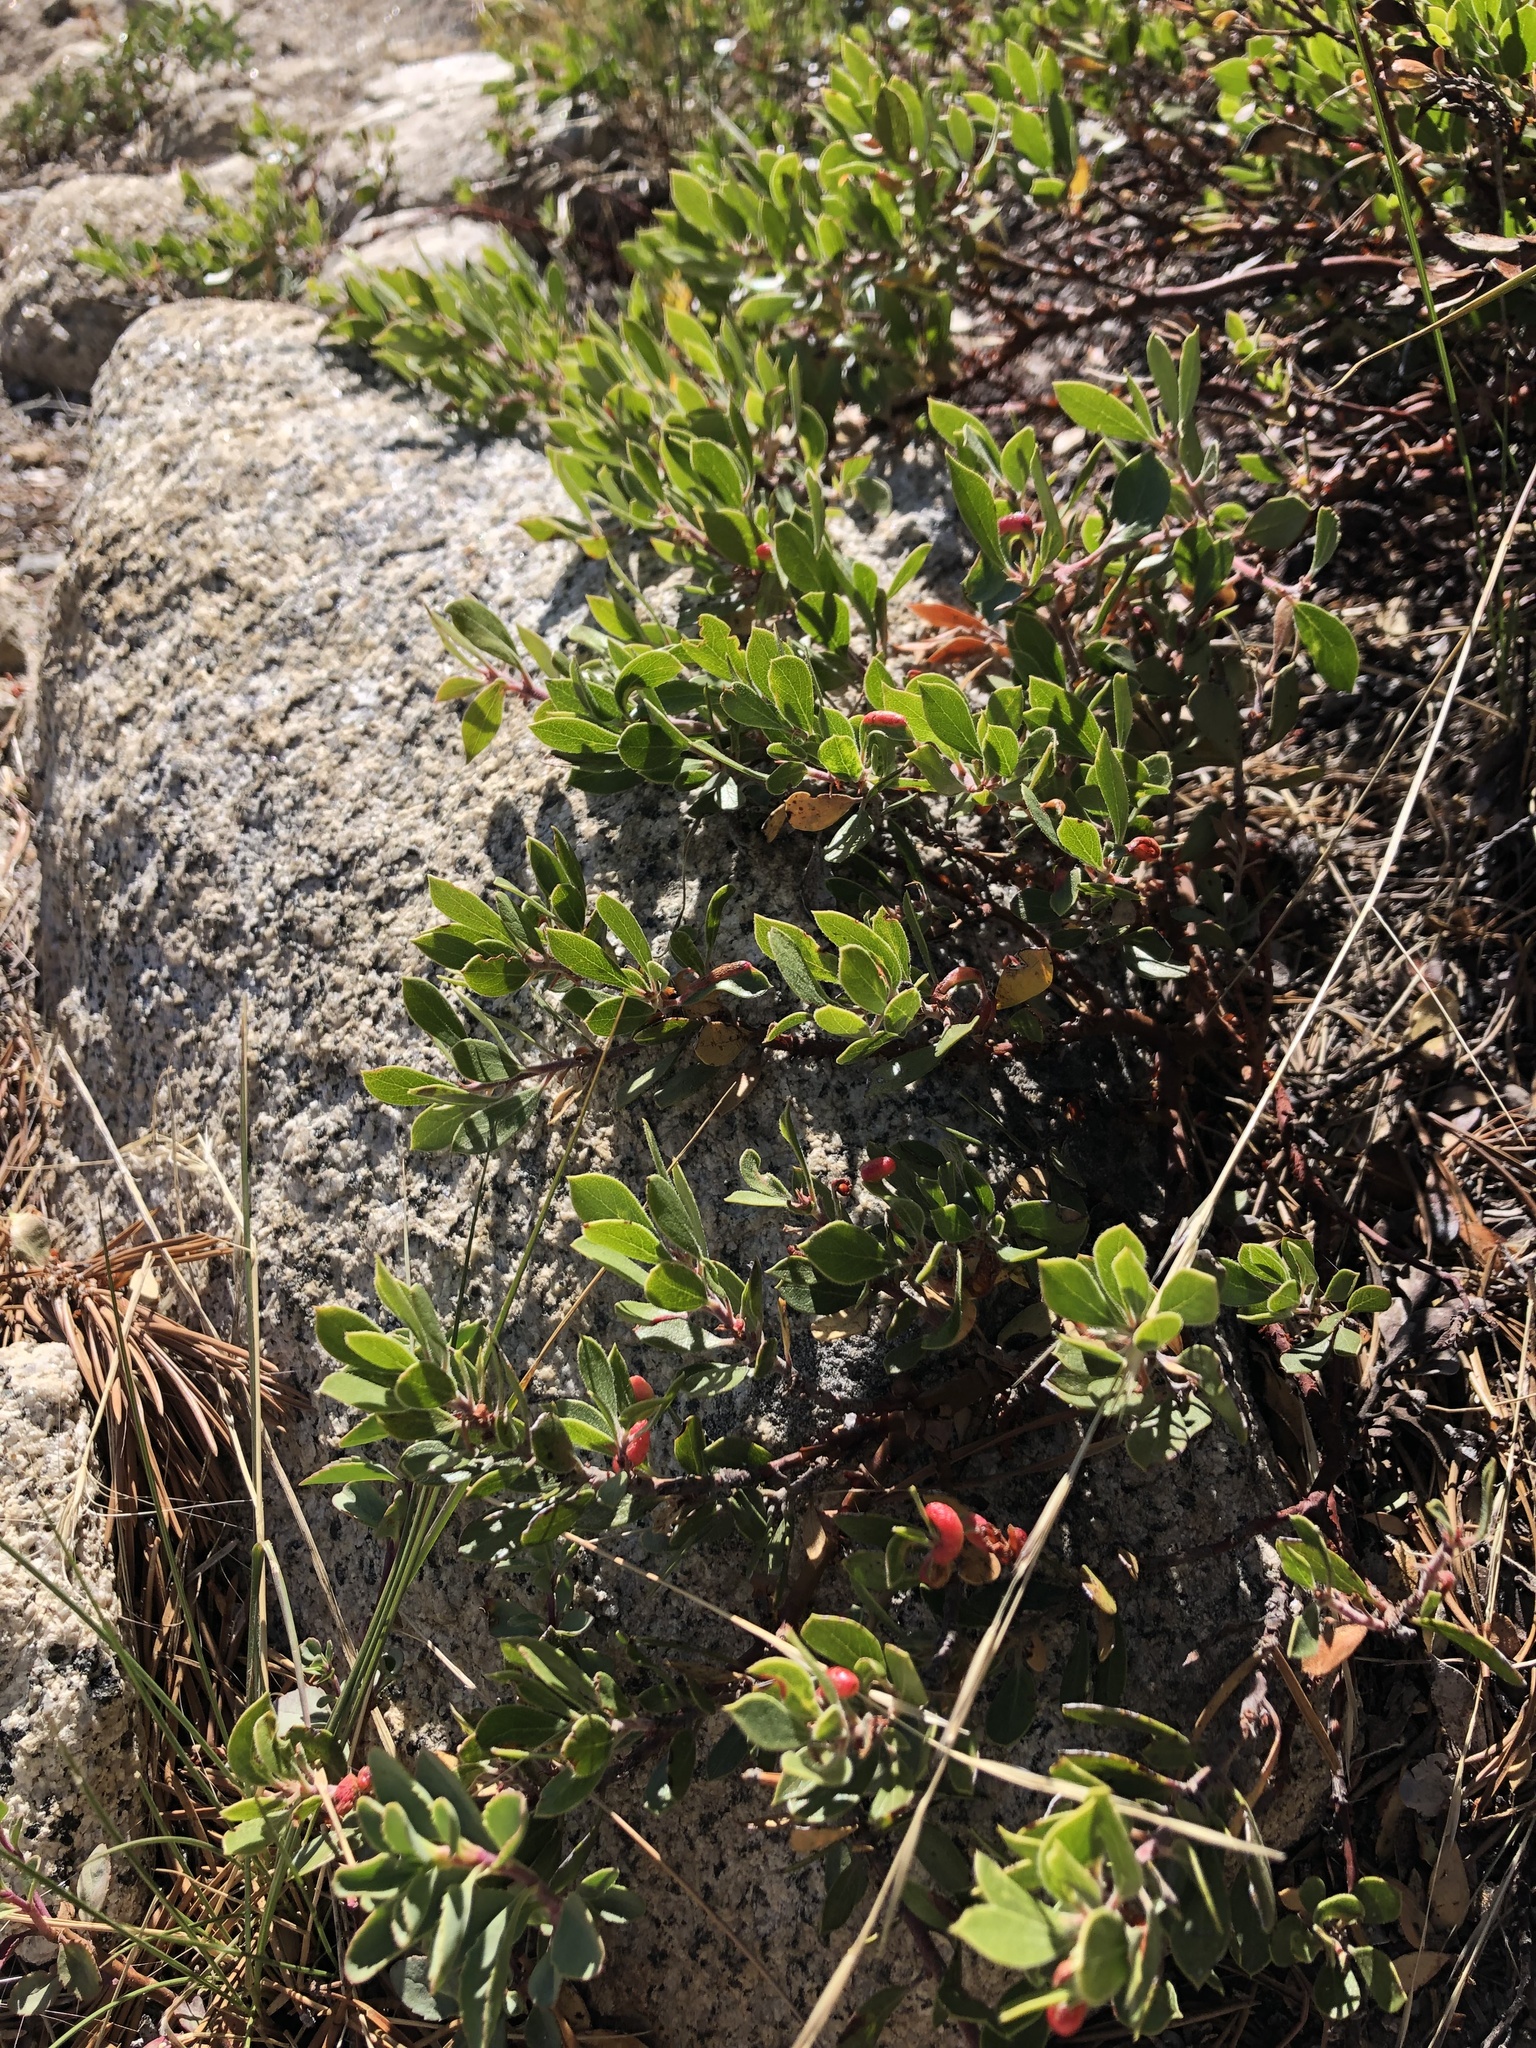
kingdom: Plantae
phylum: Tracheophyta
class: Magnoliopsida
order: Ericales
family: Ericaceae
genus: Arctostaphylos
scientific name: Arctostaphylos nevadensis
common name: Pinemat manzanita
